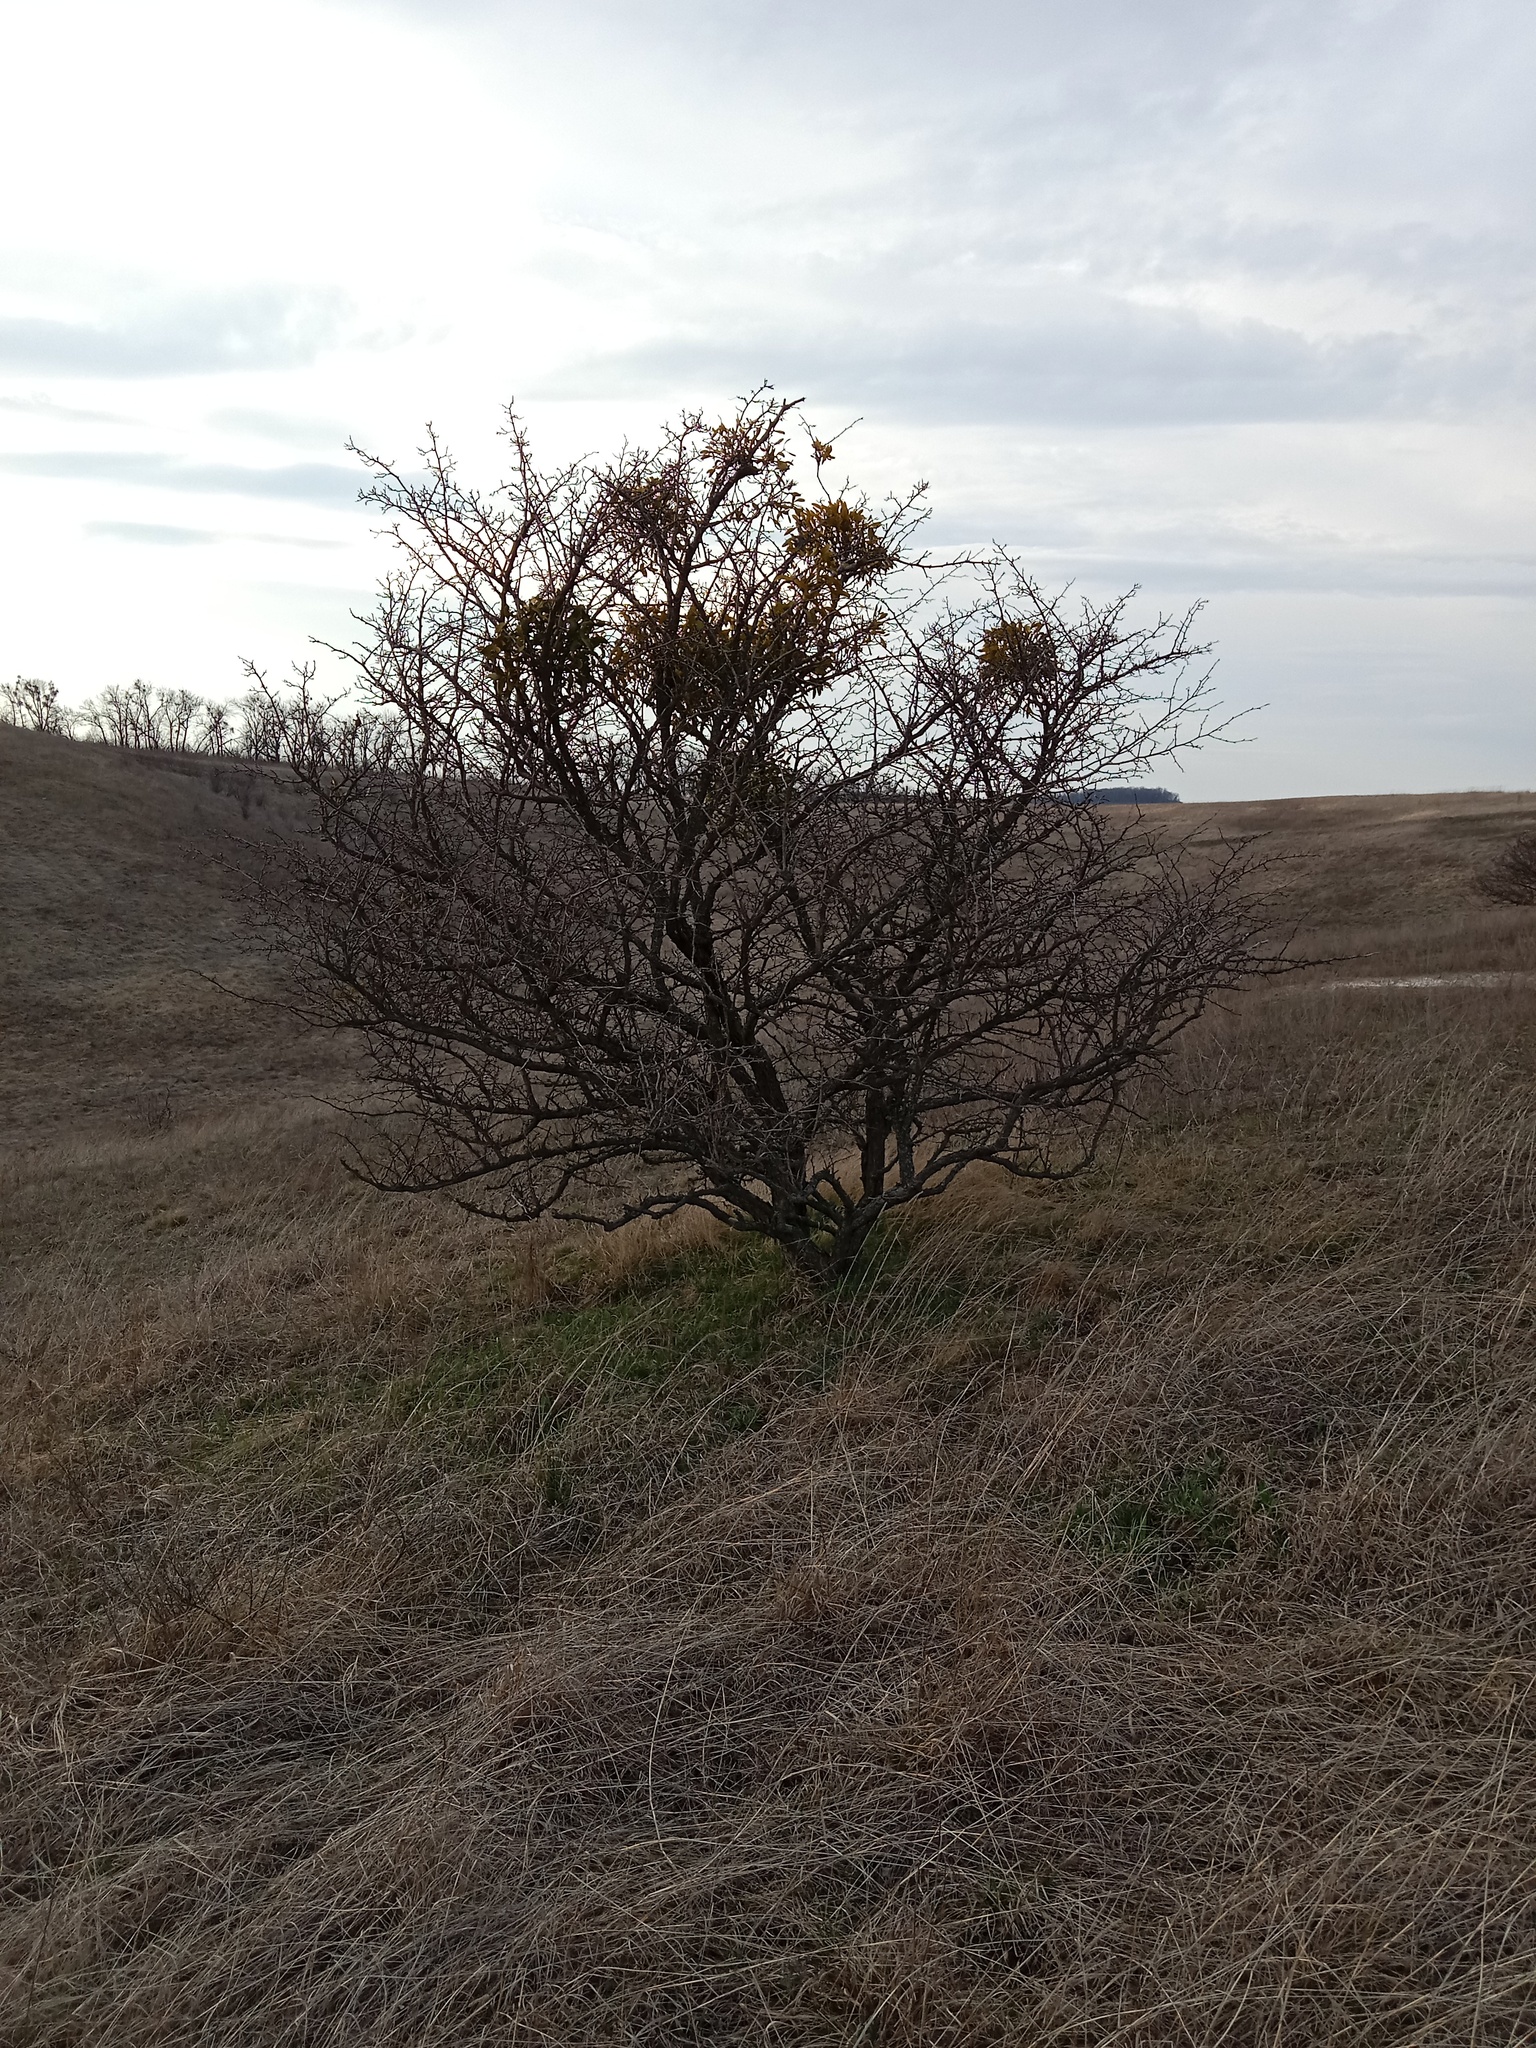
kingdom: Plantae
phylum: Tracheophyta
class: Magnoliopsida
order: Santalales
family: Viscaceae
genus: Viscum
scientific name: Viscum album
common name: Mistletoe
